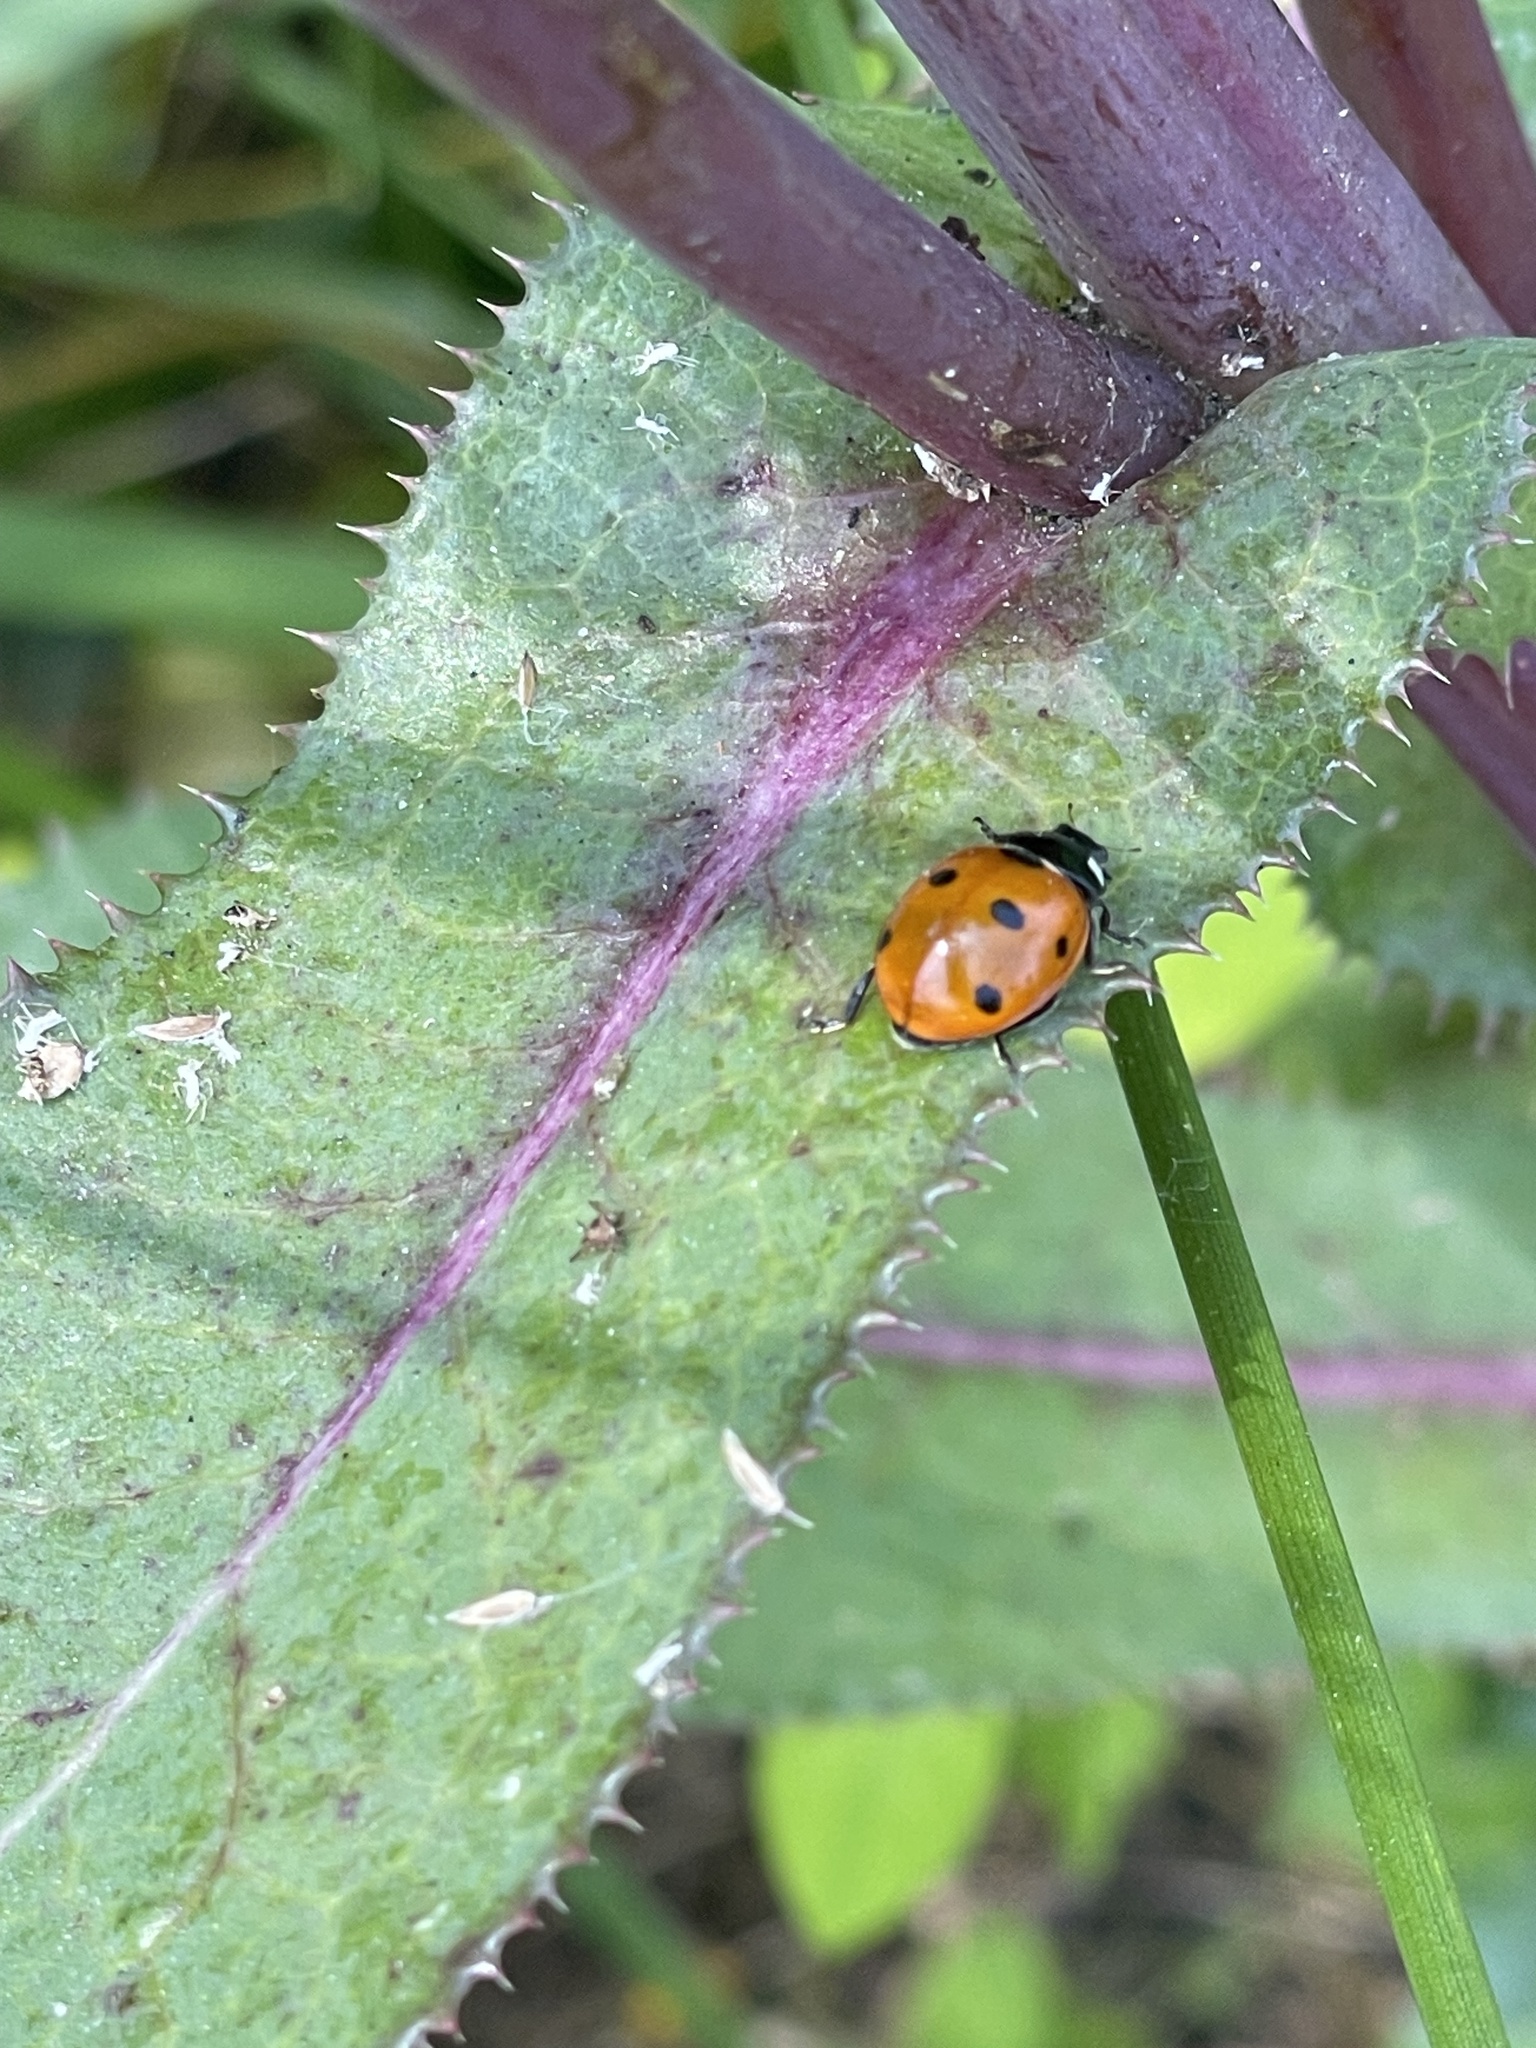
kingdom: Animalia
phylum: Arthropoda
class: Insecta
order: Coleoptera
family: Coccinellidae
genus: Coccinella
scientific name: Coccinella septempunctata
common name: Sevenspotted lady beetle
